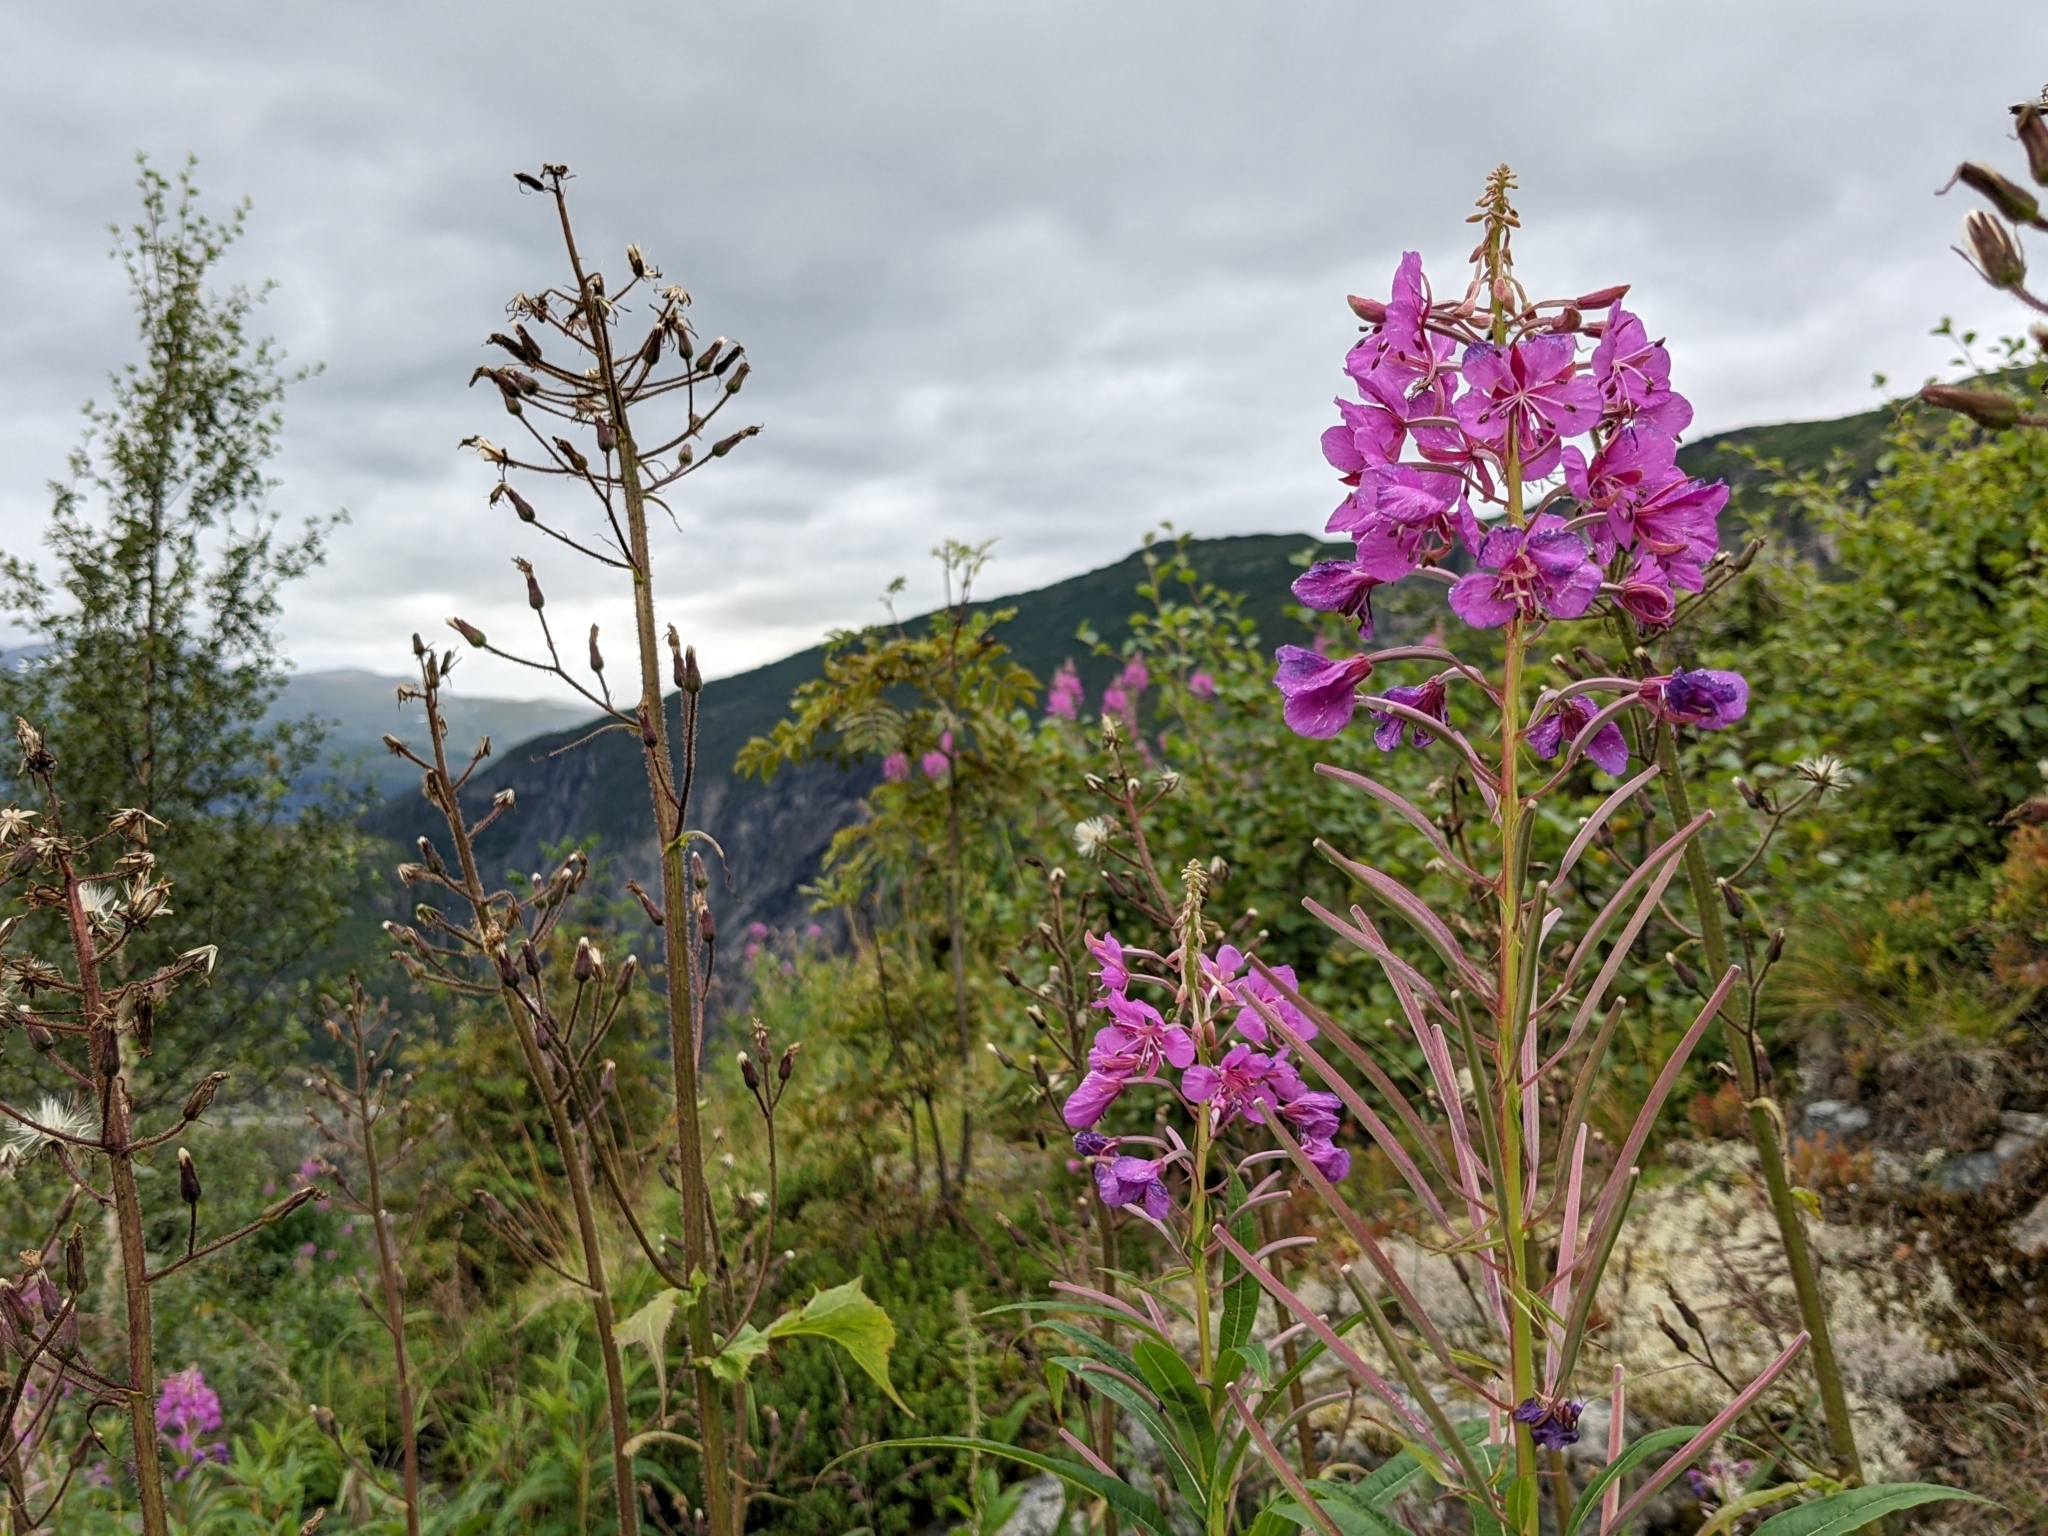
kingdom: Plantae
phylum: Tracheophyta
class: Magnoliopsida
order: Myrtales
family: Onagraceae
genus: Chamaenerion
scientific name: Chamaenerion angustifolium
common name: Fireweed
